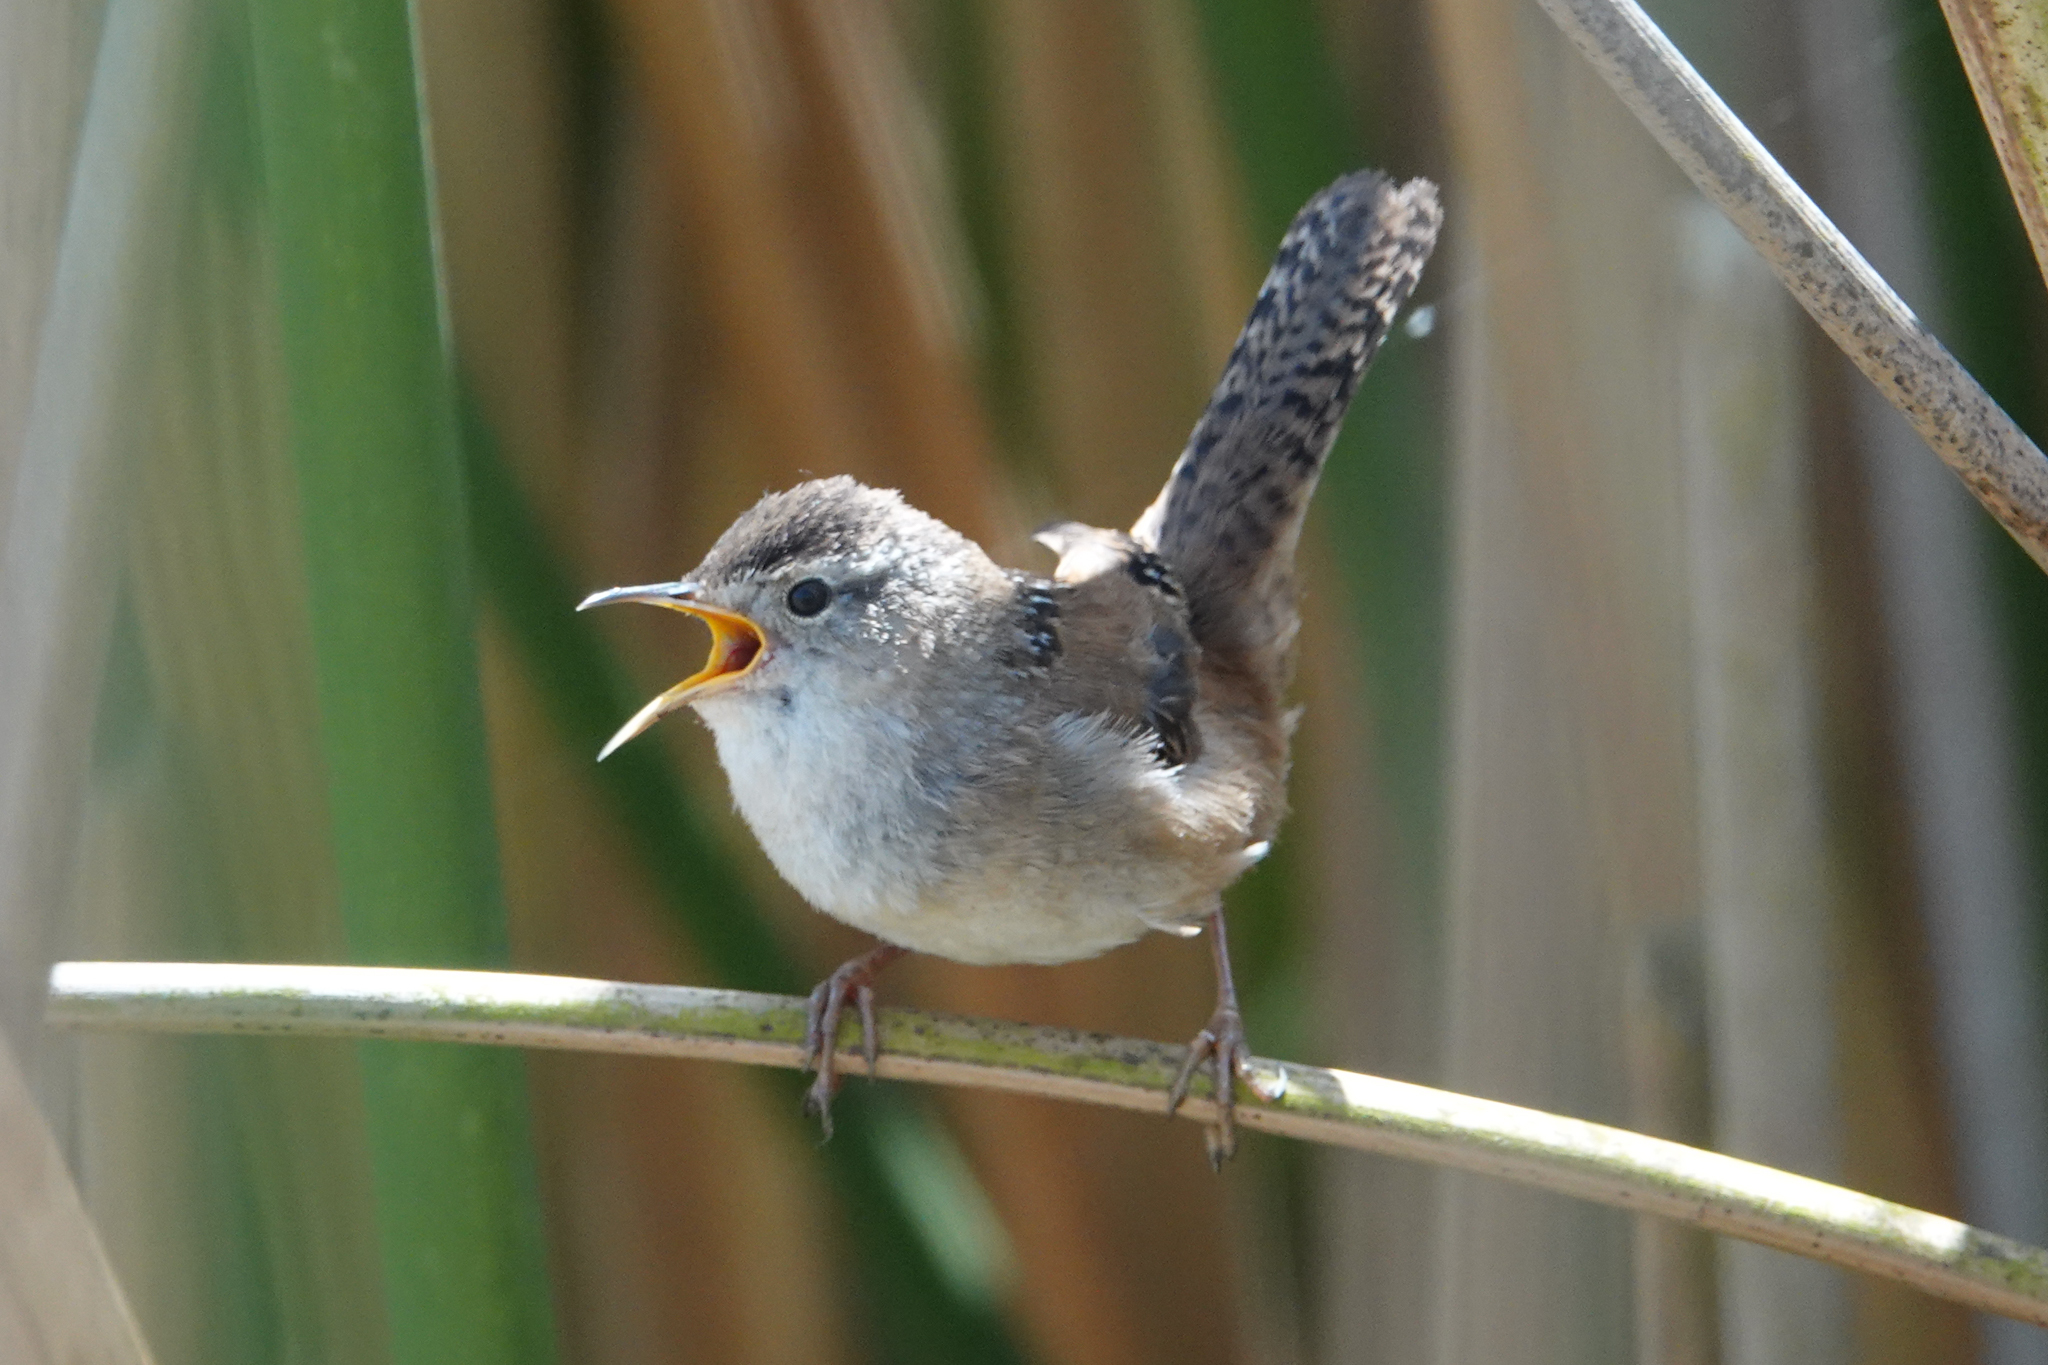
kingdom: Animalia
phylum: Chordata
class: Aves
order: Passeriformes
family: Troglodytidae
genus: Cistothorus
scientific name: Cistothorus palustris
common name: Marsh wren
